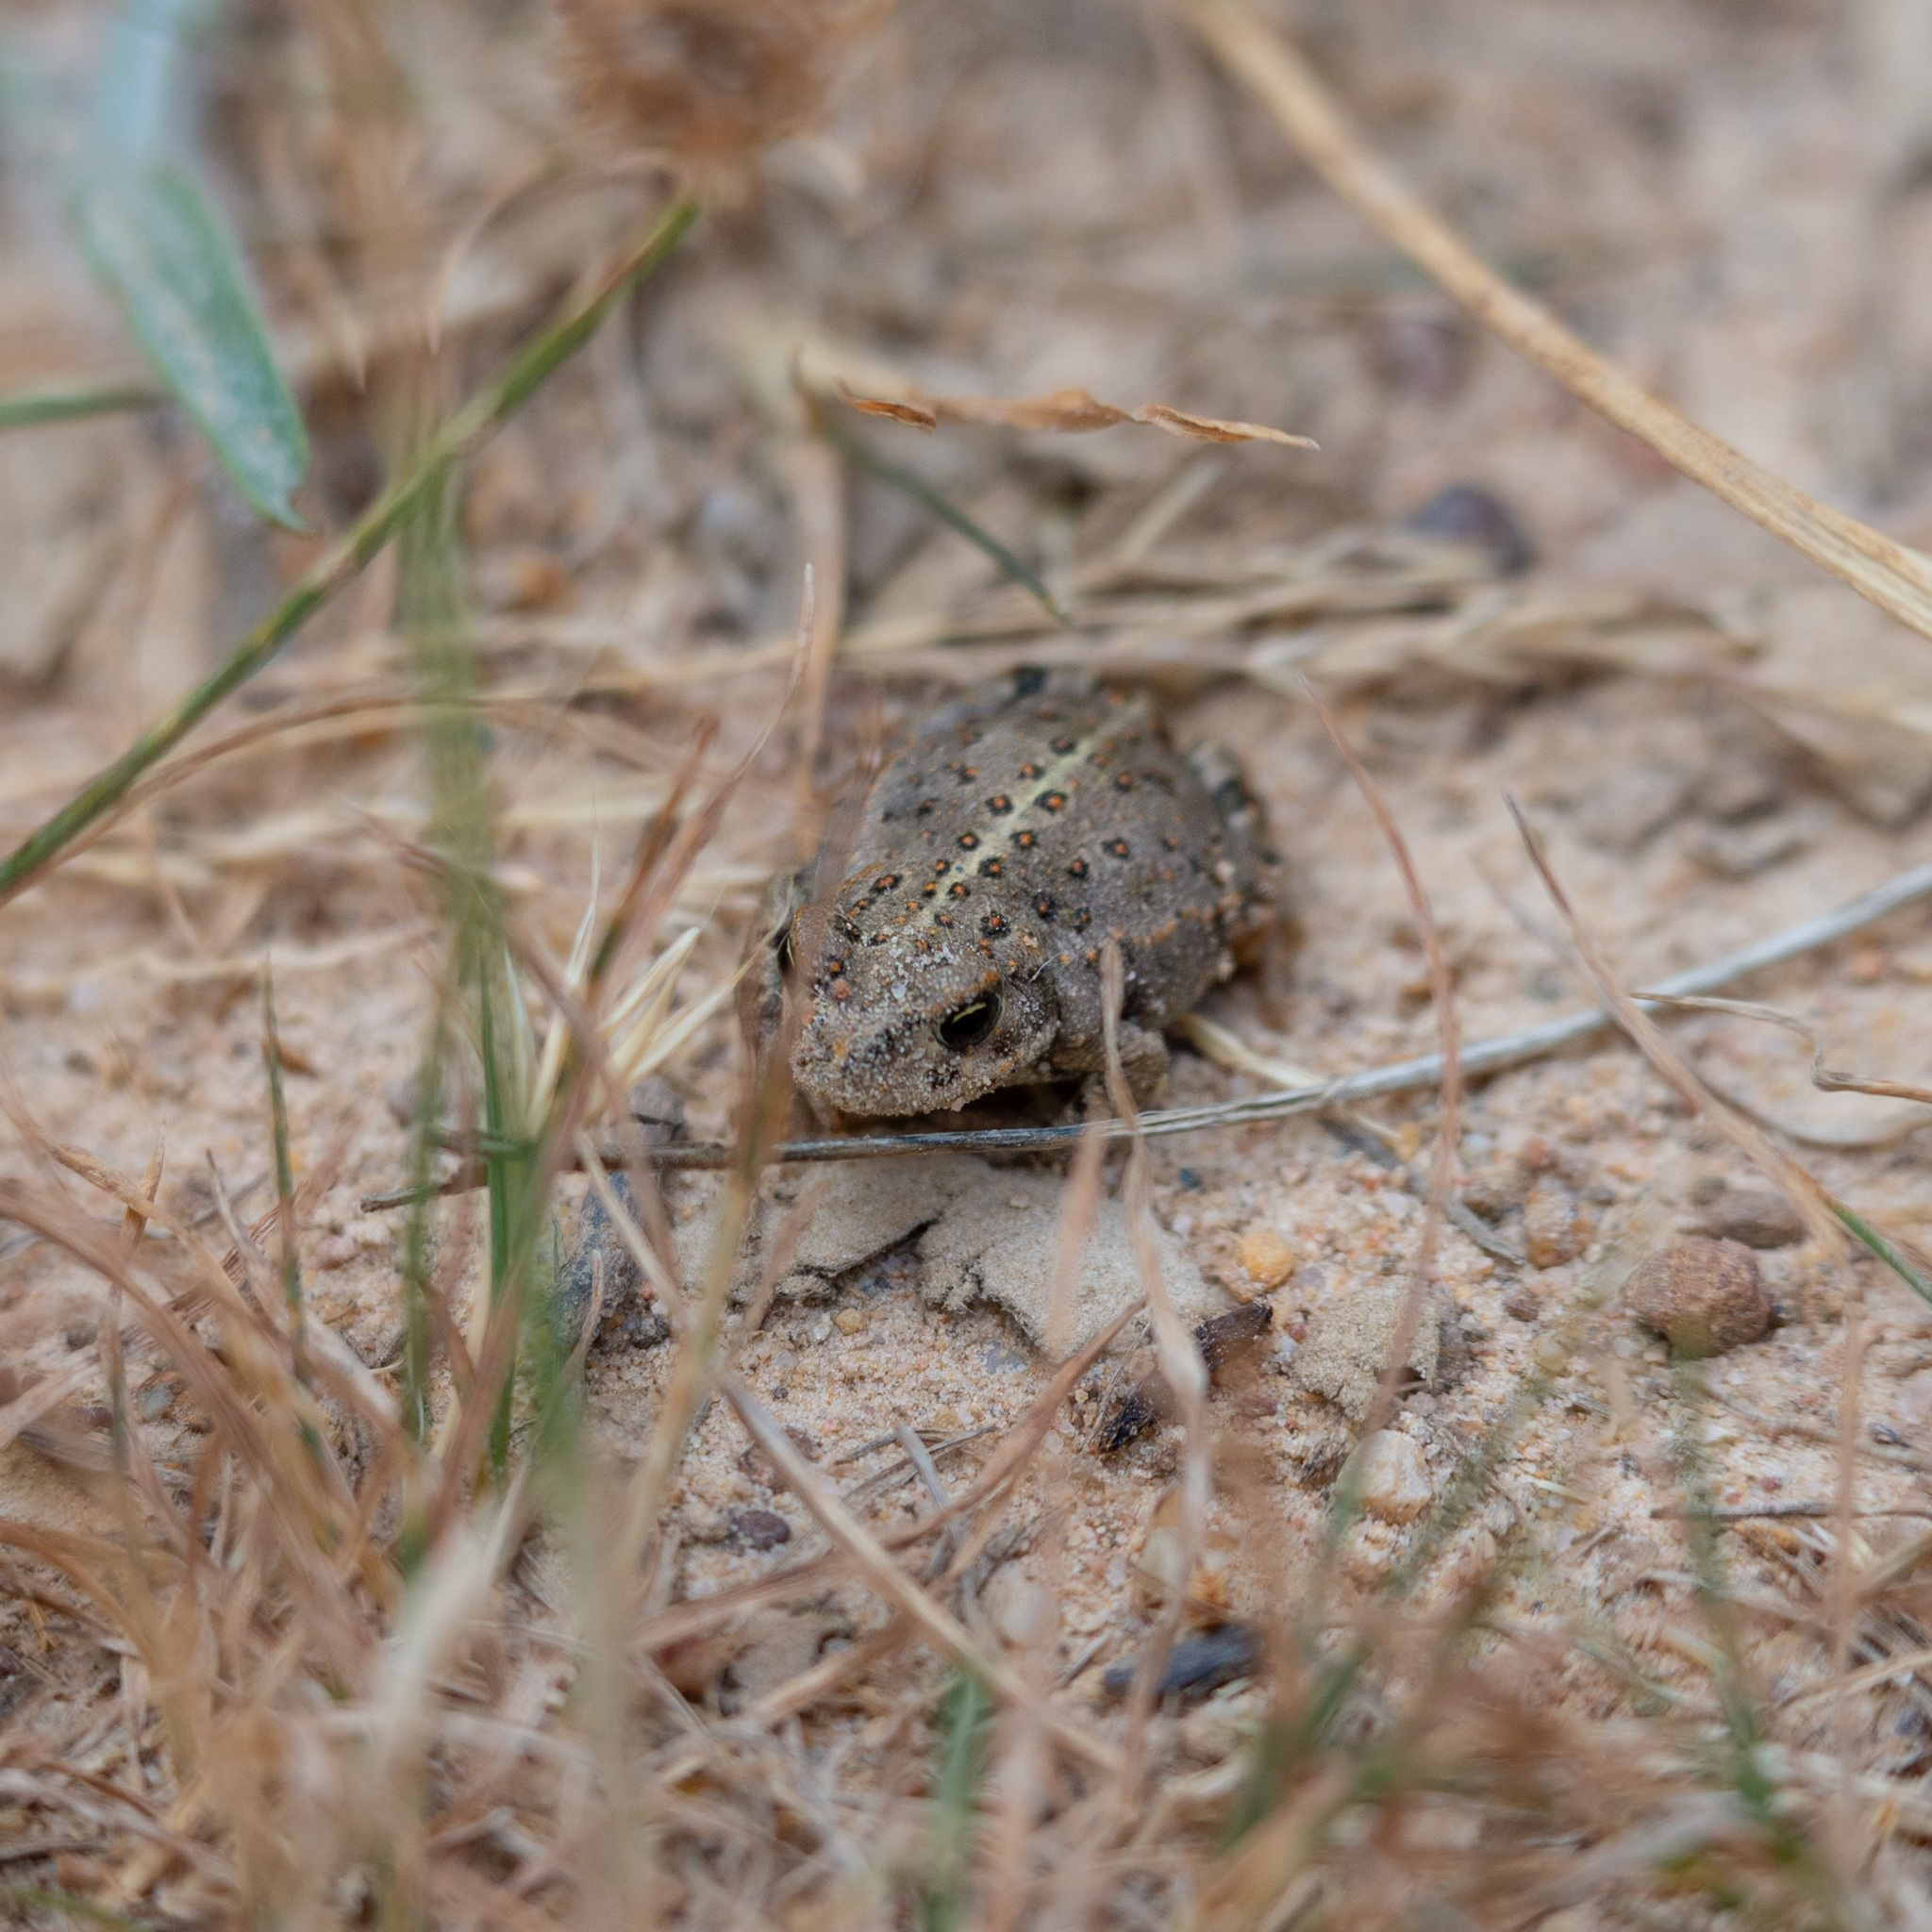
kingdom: Animalia
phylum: Chordata
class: Amphibia
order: Anura
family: Bufonidae
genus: Epidalea
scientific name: Epidalea calamita
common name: Natterjack toad
